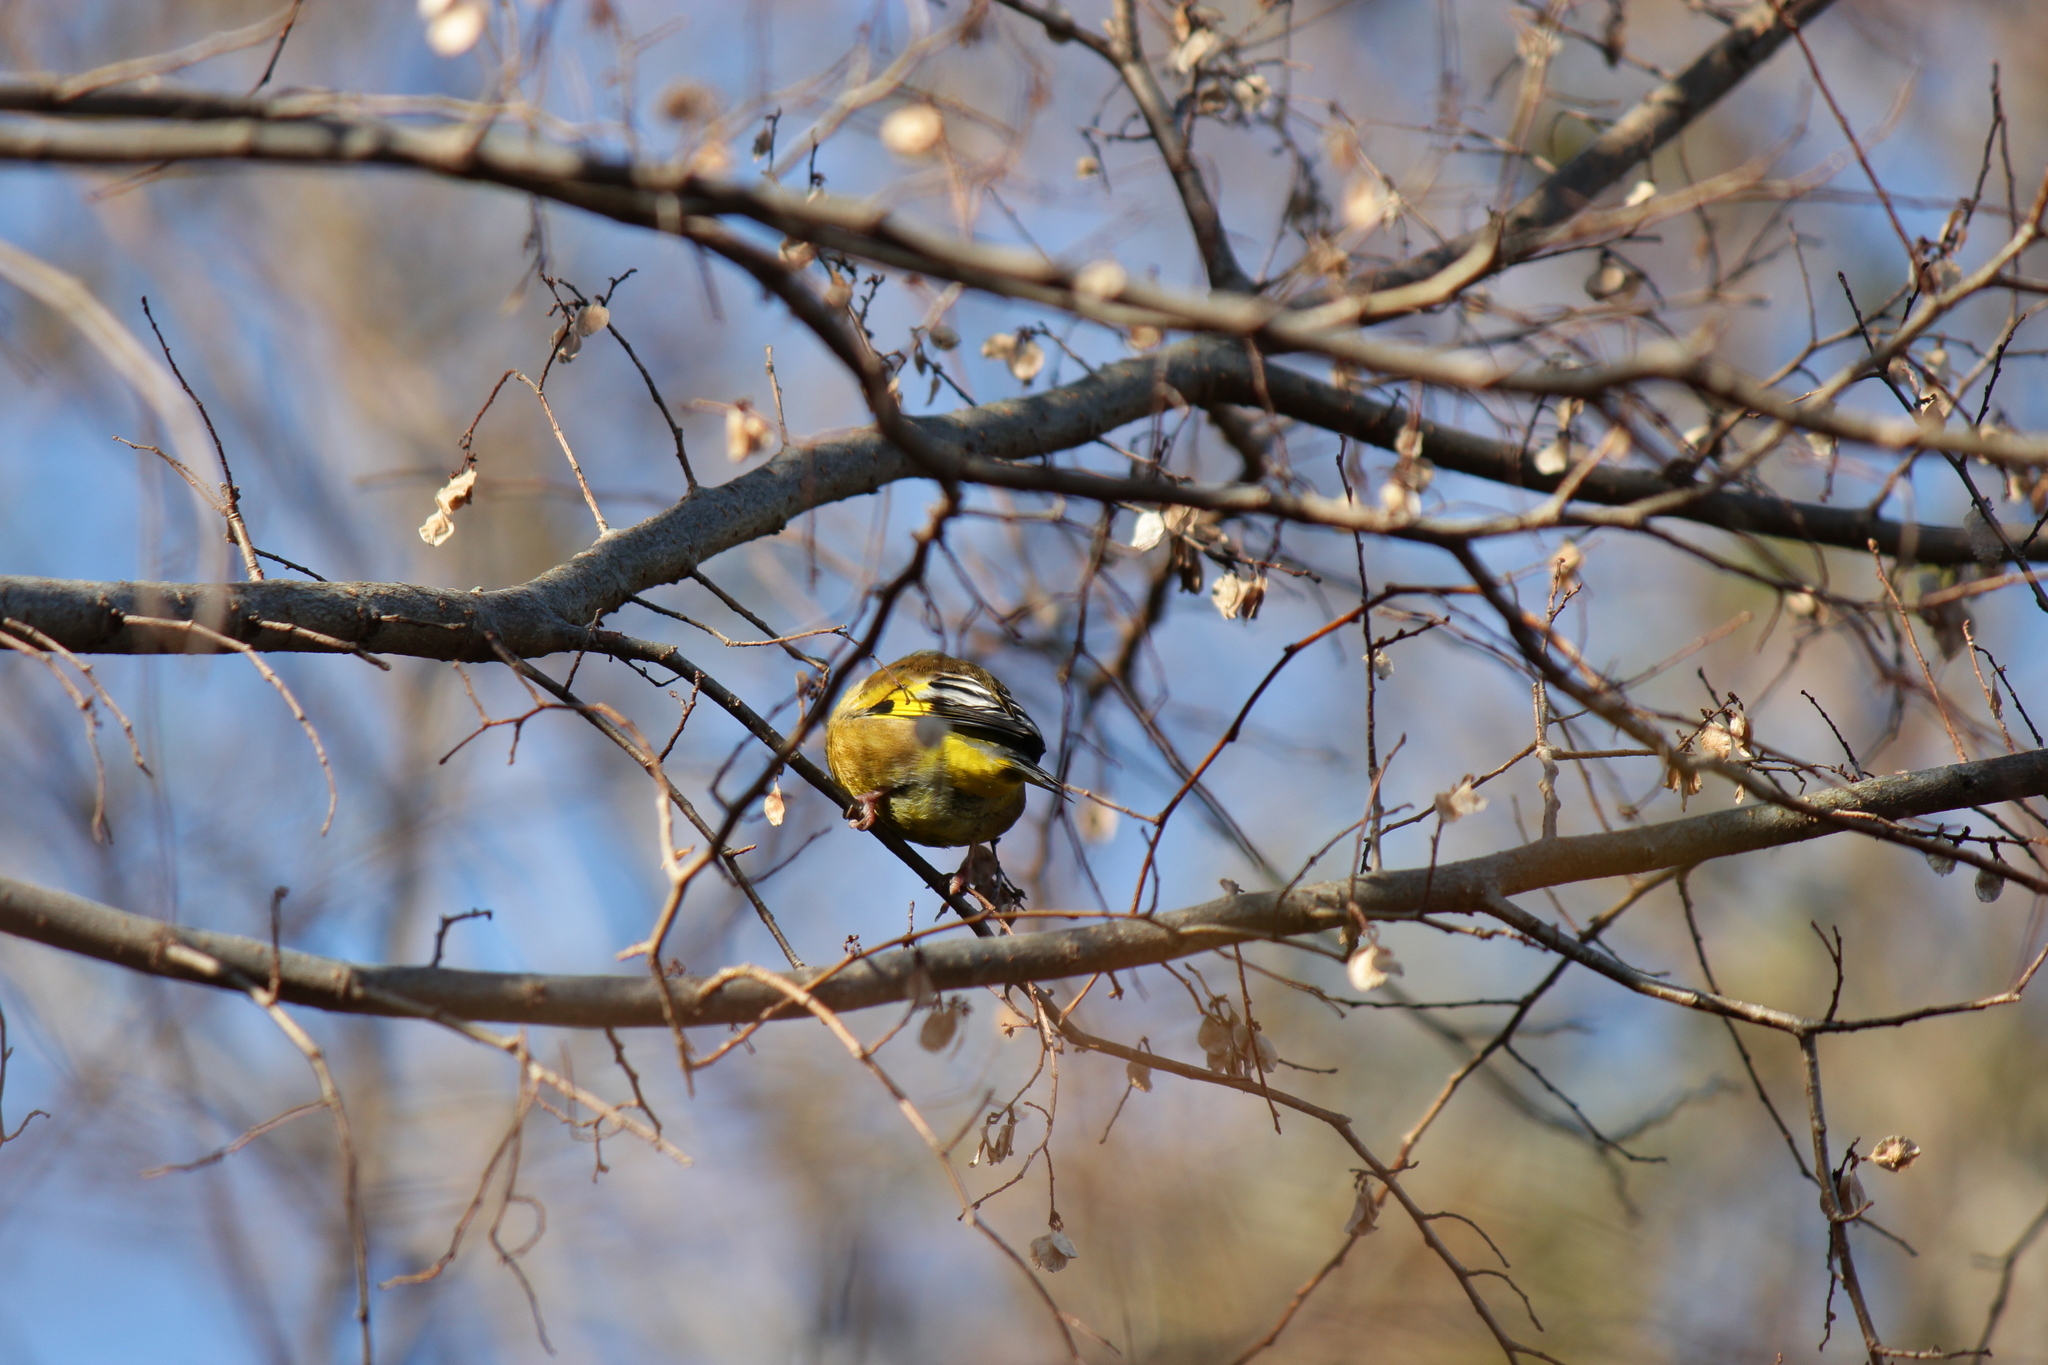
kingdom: Plantae
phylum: Tracheophyta
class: Liliopsida
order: Poales
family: Poaceae
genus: Chloris
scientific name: Chloris sinica
